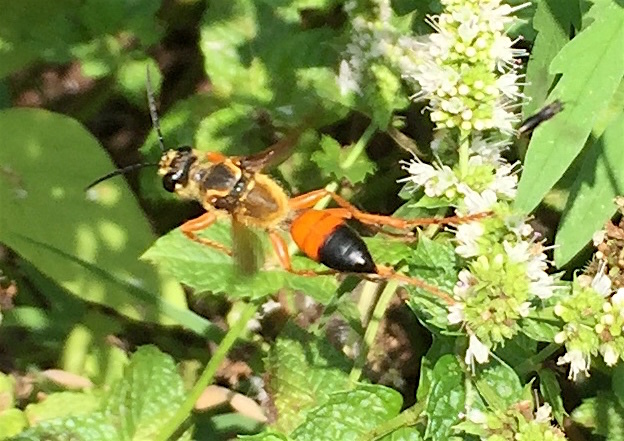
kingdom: Animalia
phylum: Arthropoda
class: Insecta
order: Hymenoptera
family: Sphecidae
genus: Sphex
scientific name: Sphex ichneumoneus
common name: Great golden digger wasp
